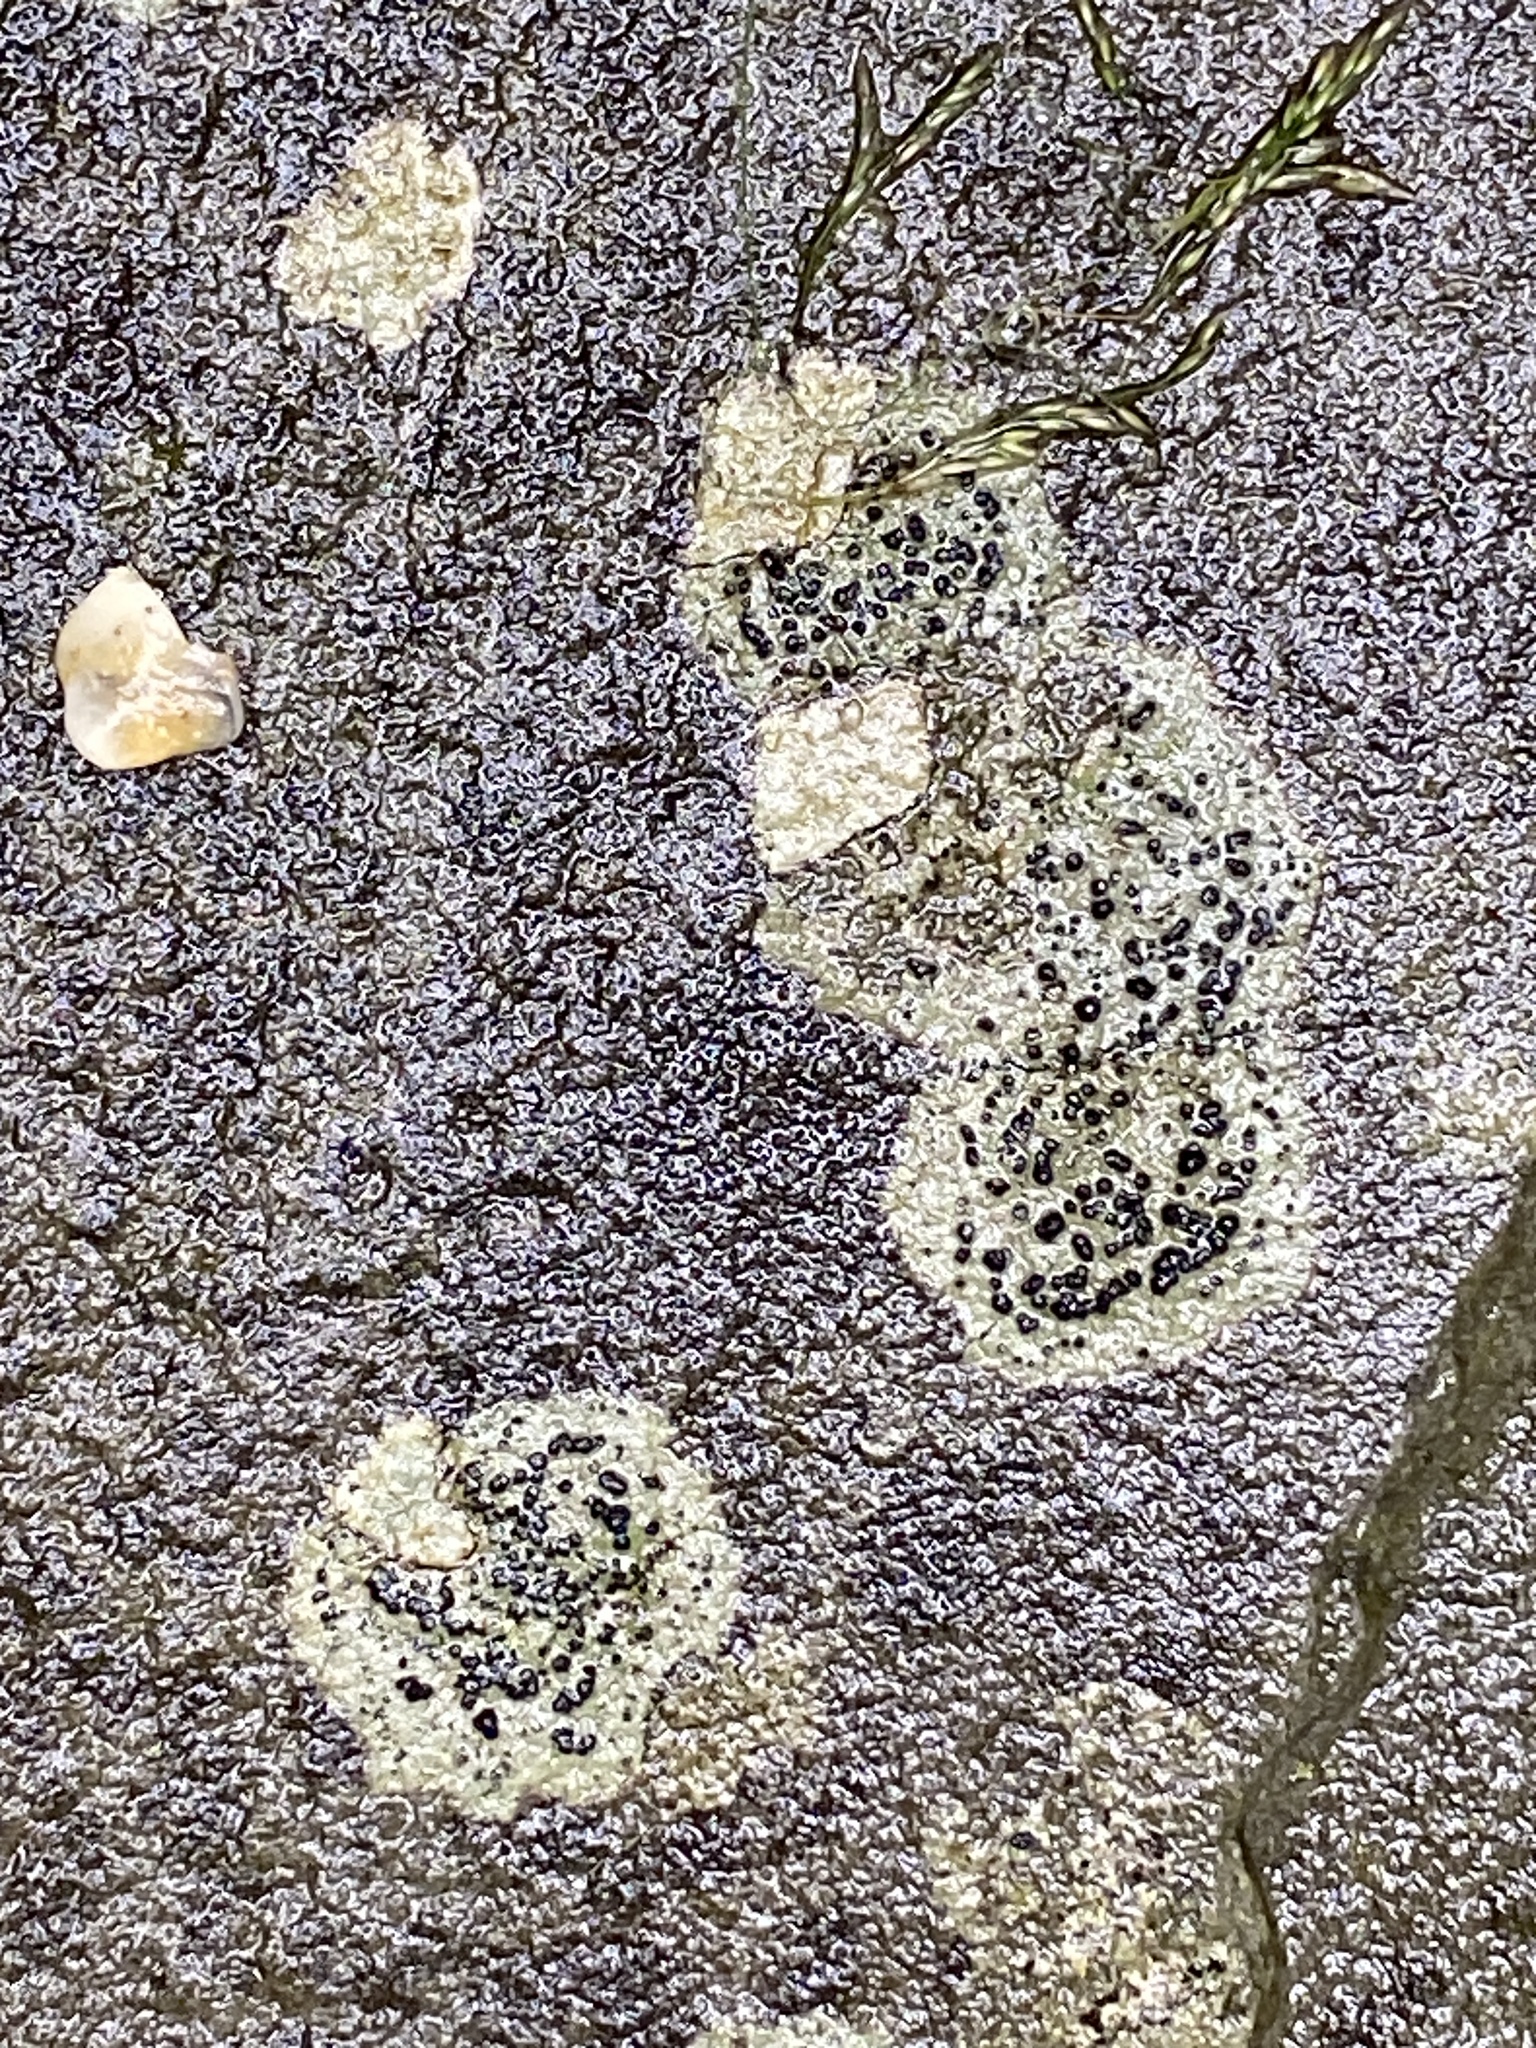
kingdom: Fungi
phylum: Ascomycota
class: Lecanoromycetes
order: Lecideales
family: Lecideaceae
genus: Porpidia
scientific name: Porpidia crustulata
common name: Concentric boulder lichen
